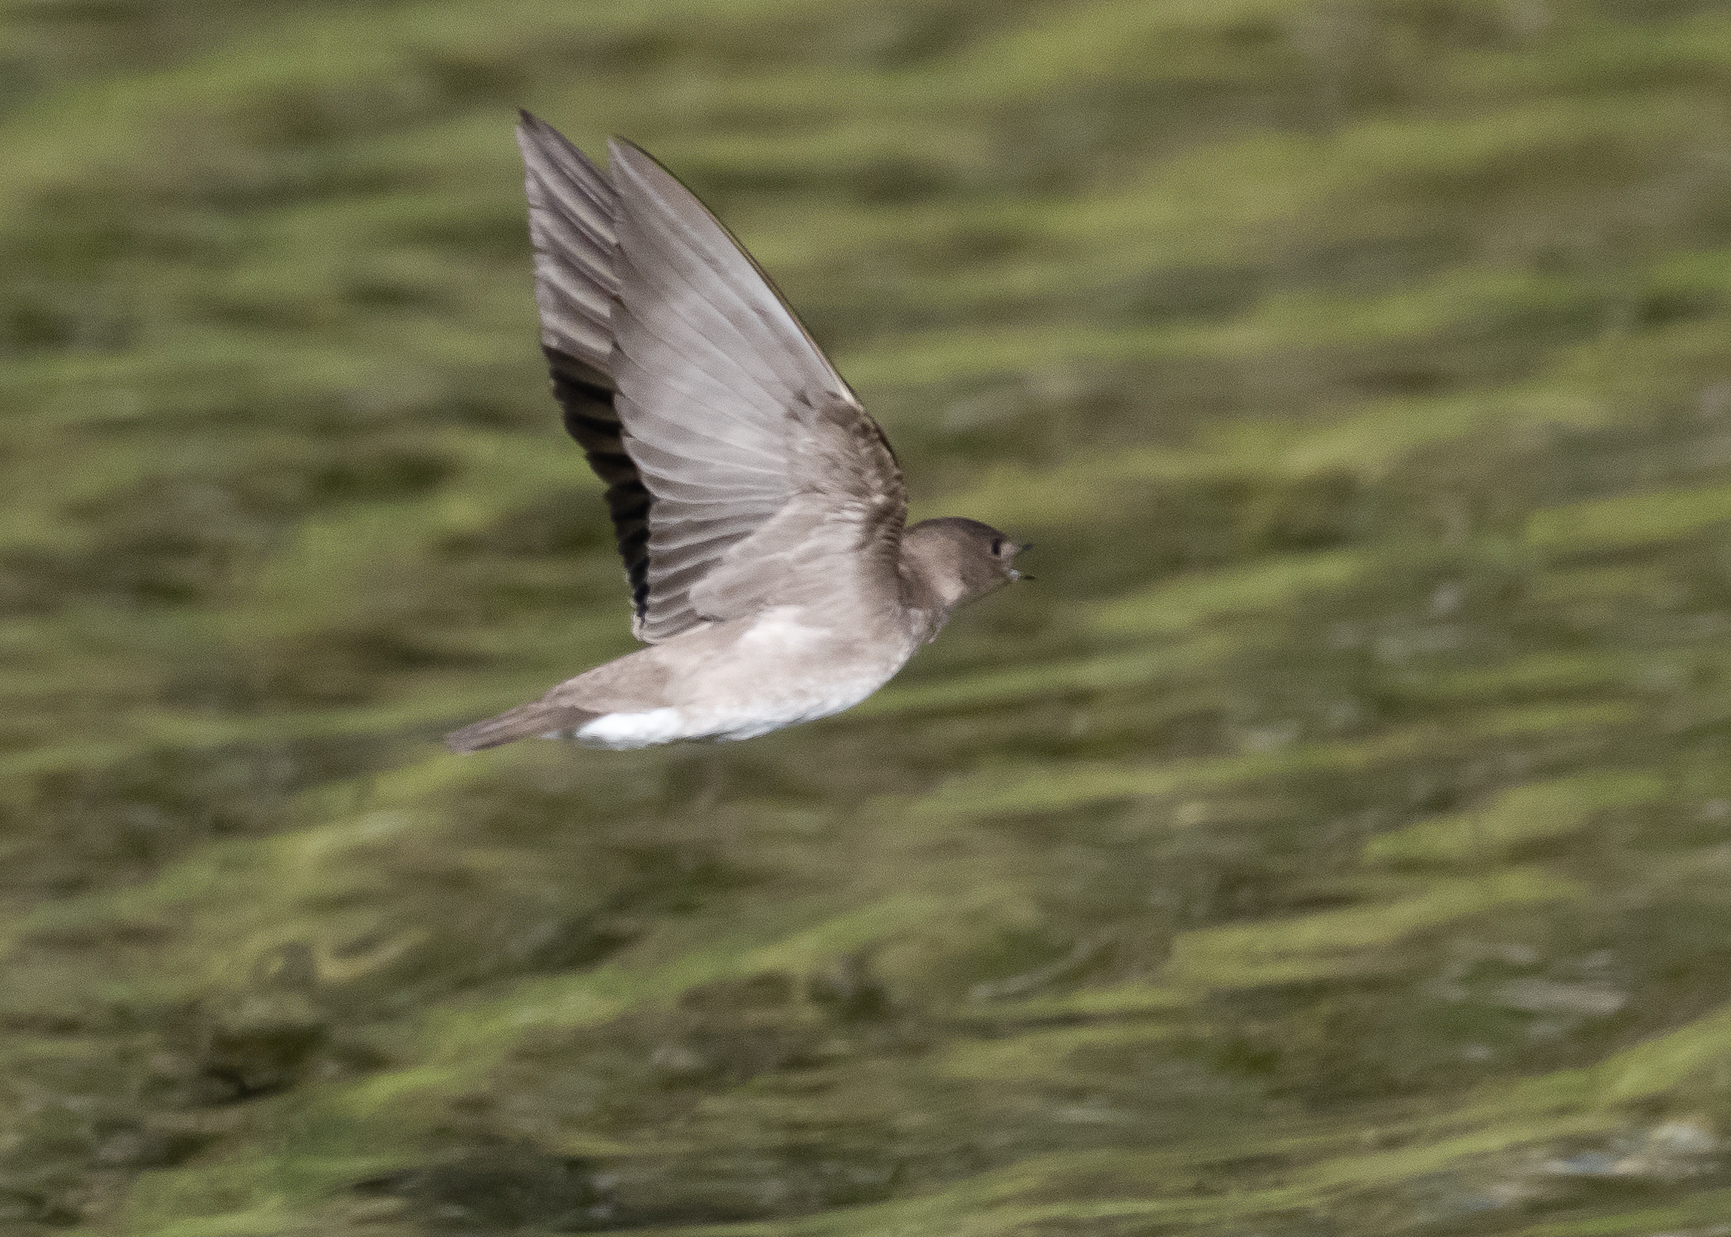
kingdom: Animalia
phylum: Chordata
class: Aves
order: Passeriformes
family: Hirundinidae
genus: Stelgidopteryx
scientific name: Stelgidopteryx serripennis
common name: Northern rough-winged swallow
